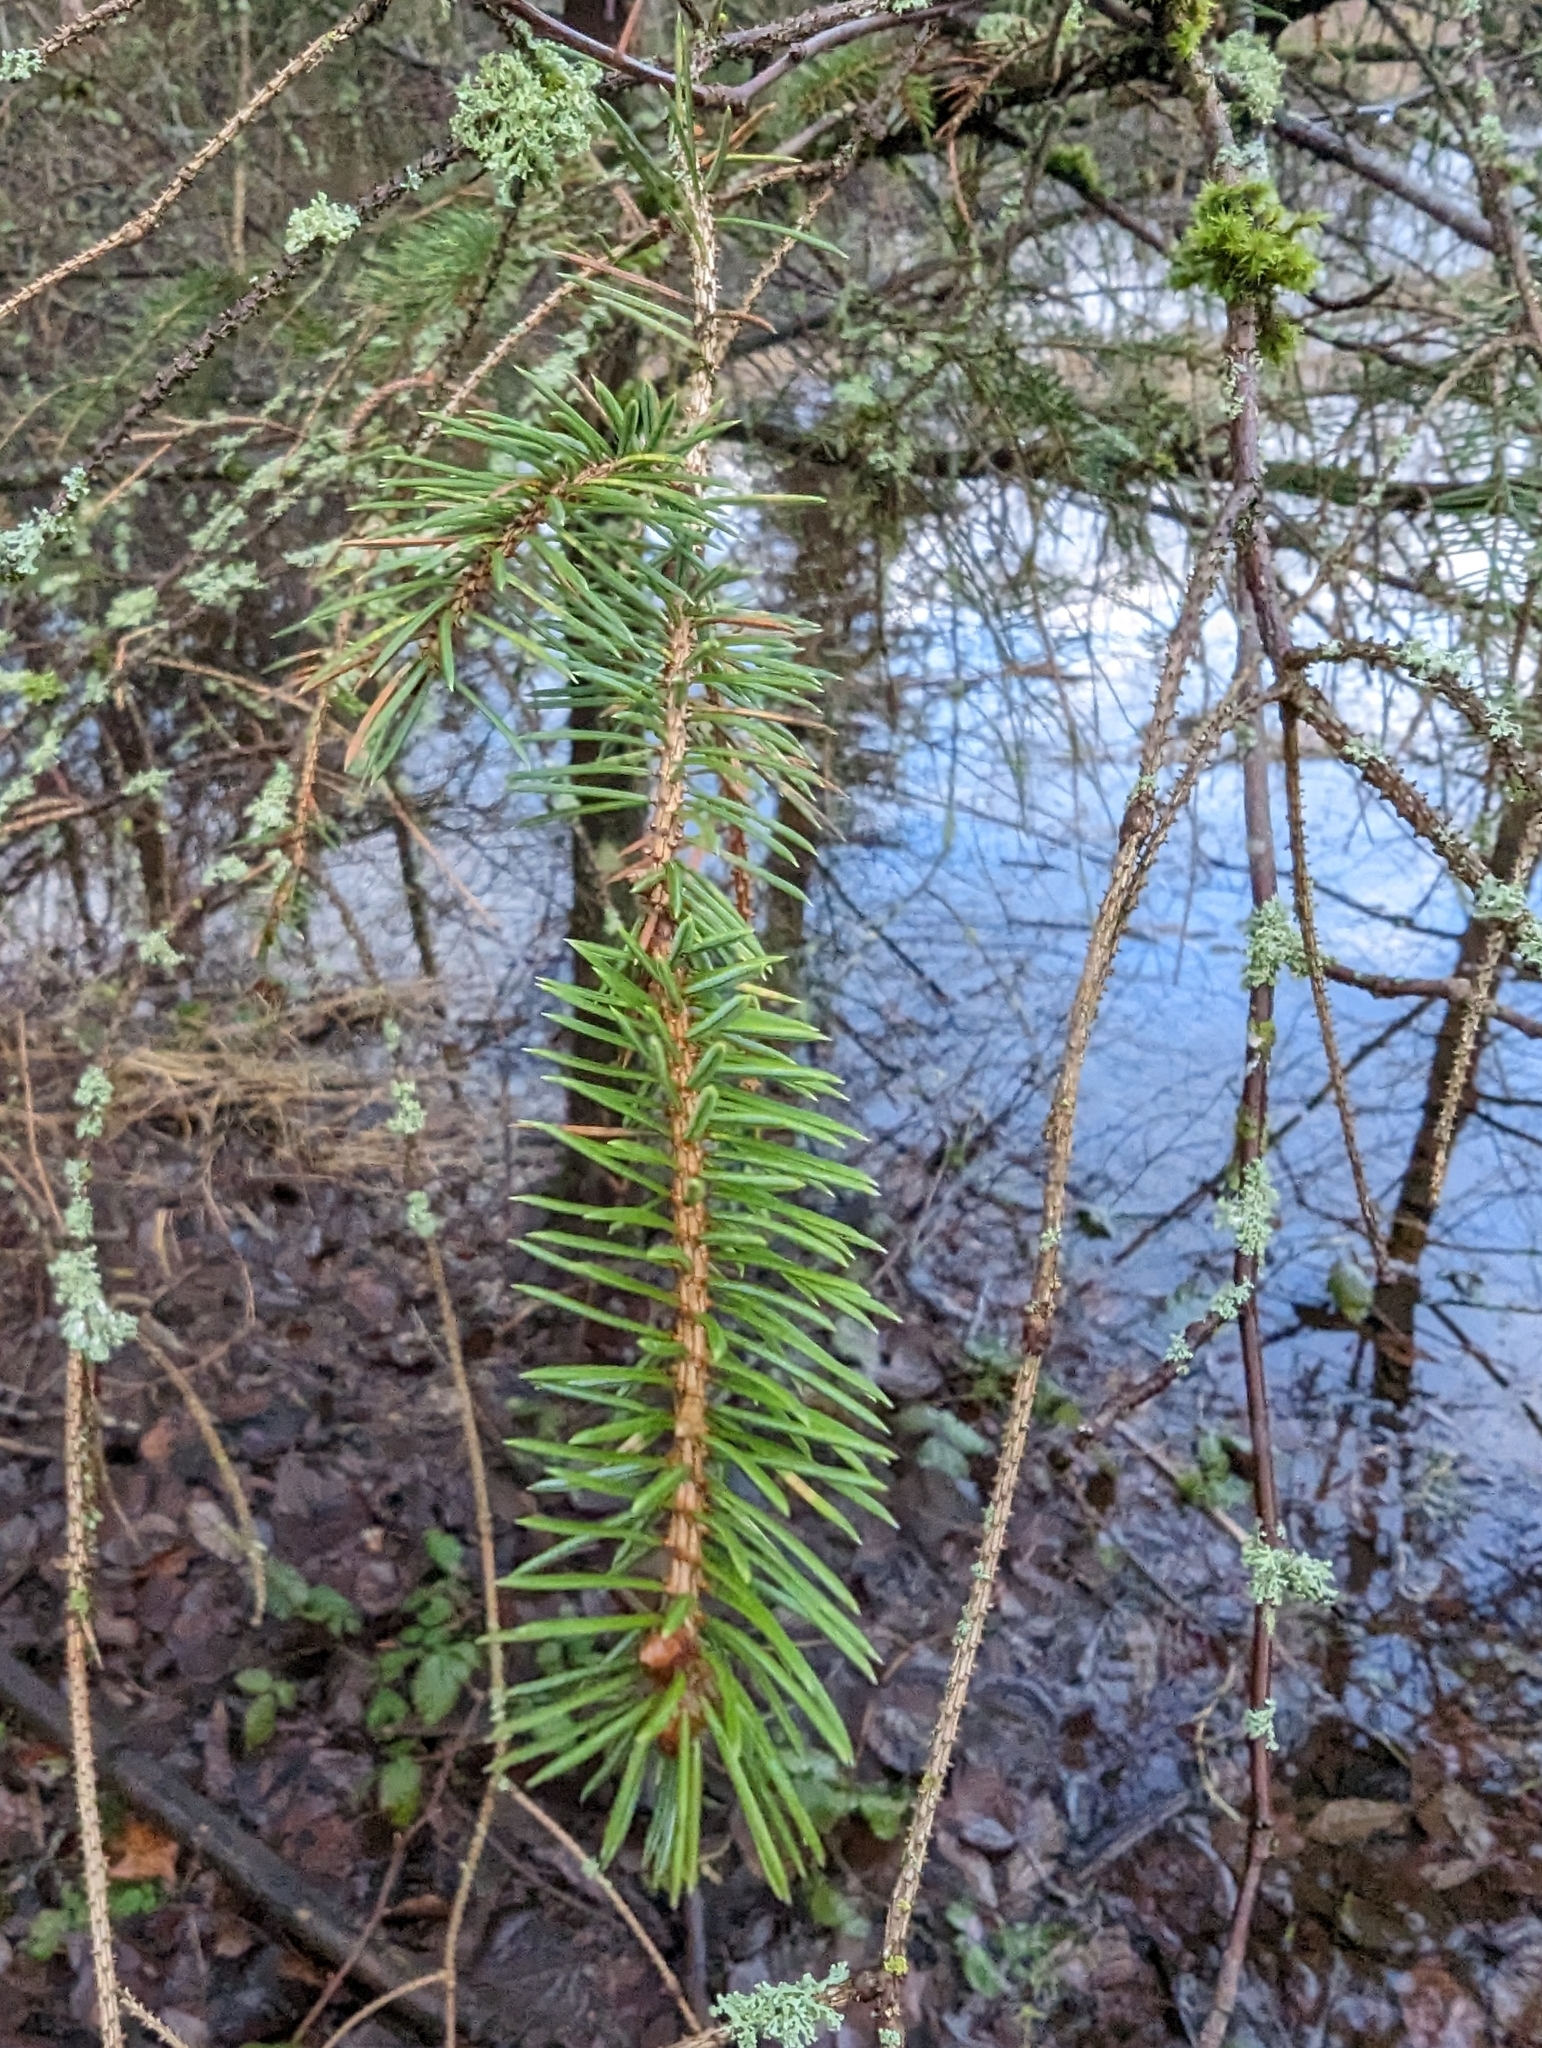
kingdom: Plantae
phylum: Tracheophyta
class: Pinopsida
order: Pinales
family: Pinaceae
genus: Picea
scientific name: Picea sitchensis
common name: Sitka spruce
